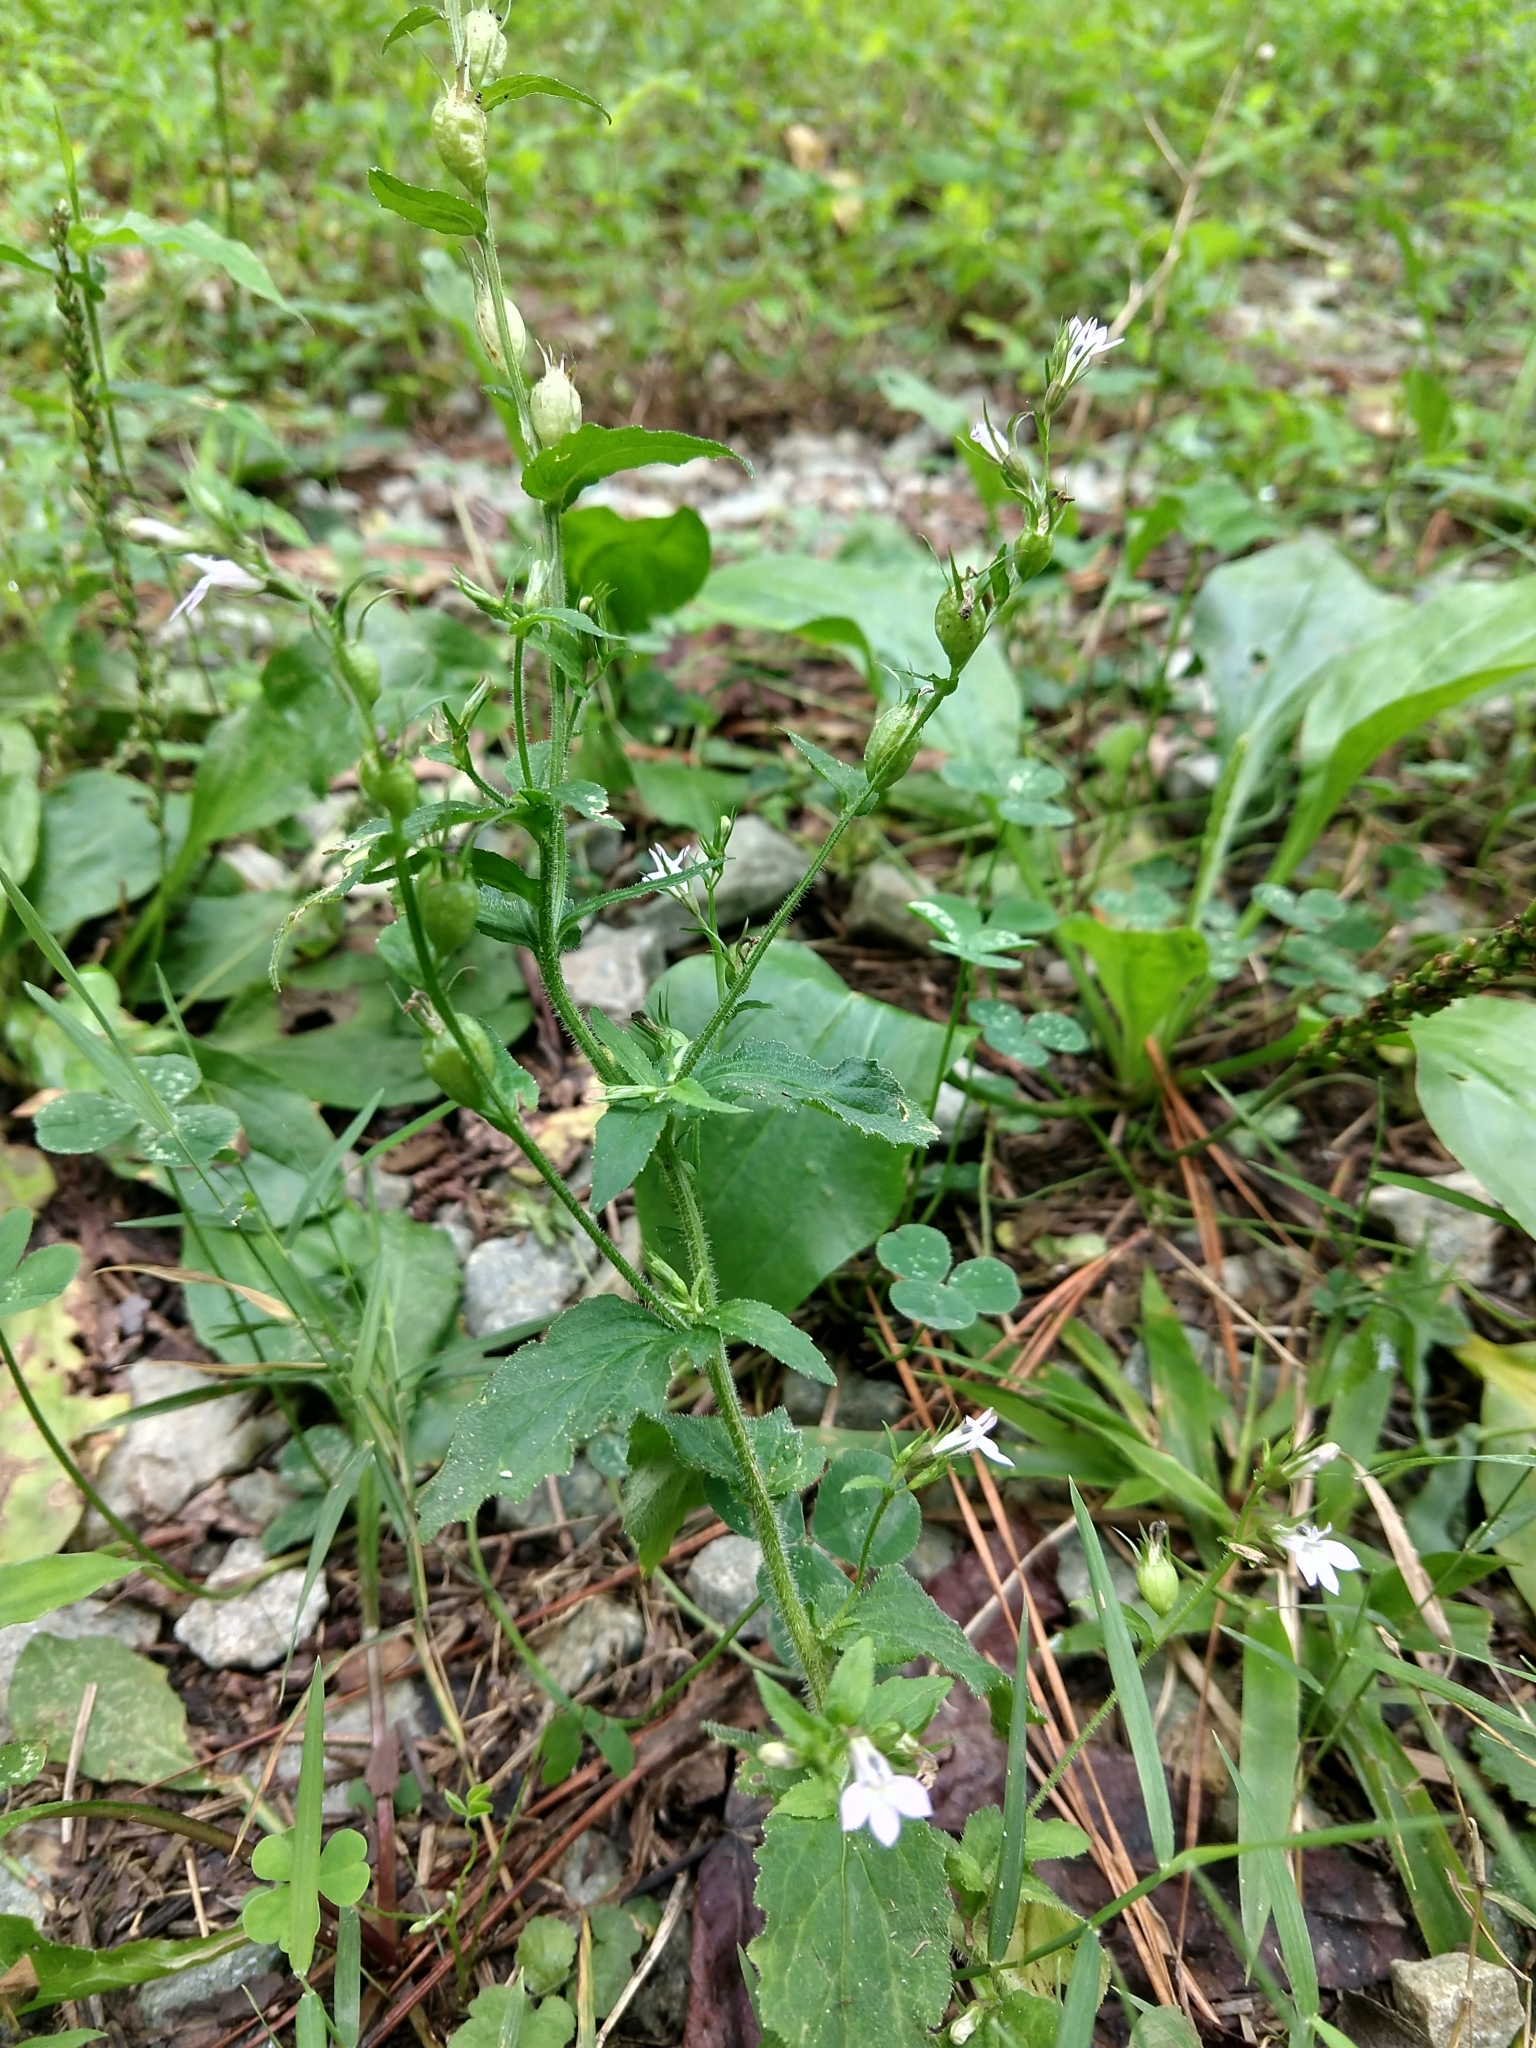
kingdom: Plantae
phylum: Tracheophyta
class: Magnoliopsida
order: Asterales
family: Campanulaceae
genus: Lobelia
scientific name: Lobelia inflata
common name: Indian tobacco
